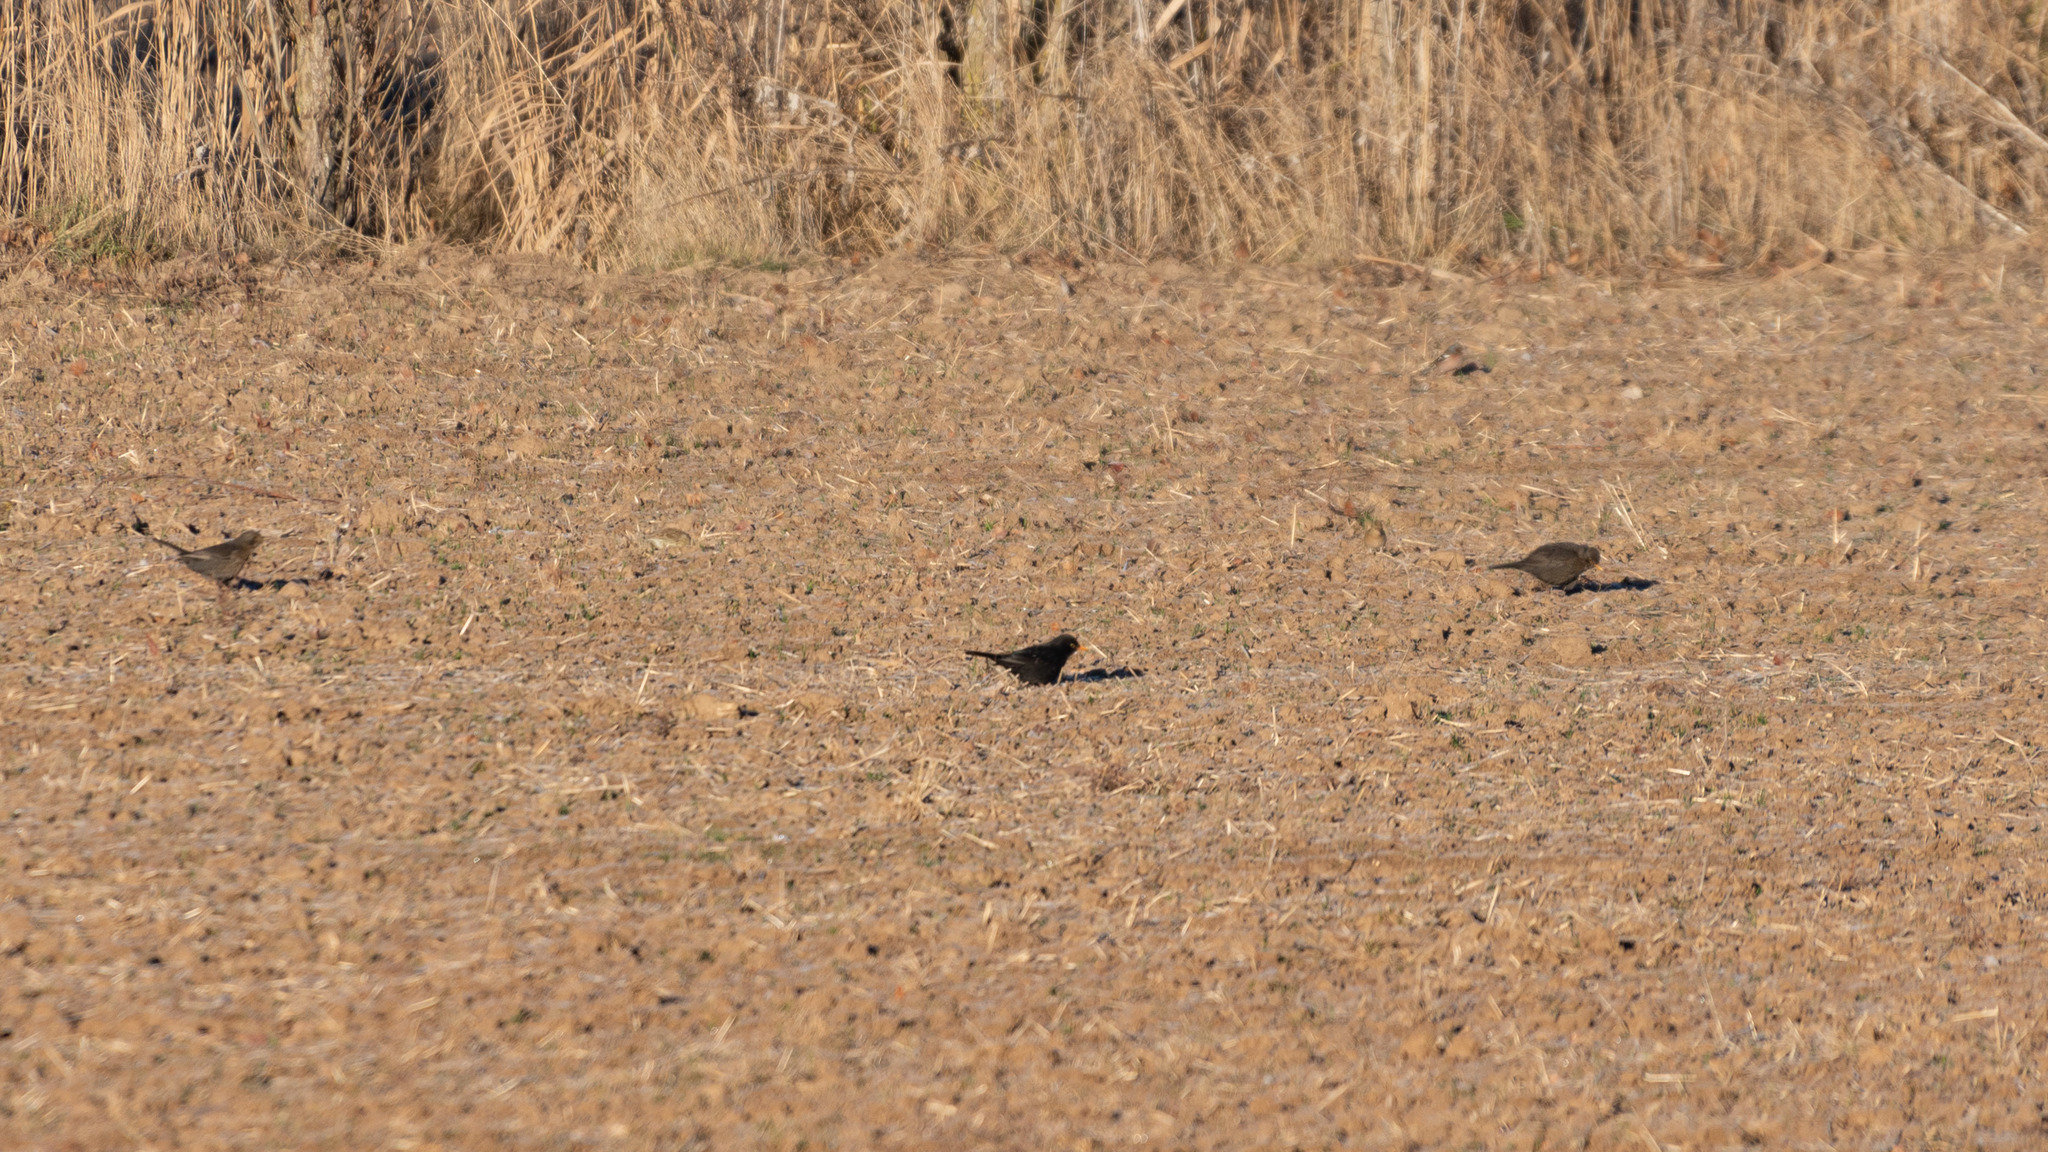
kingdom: Animalia
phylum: Chordata
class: Aves
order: Passeriformes
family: Turdidae
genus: Turdus
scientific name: Turdus merula
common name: Common blackbird
